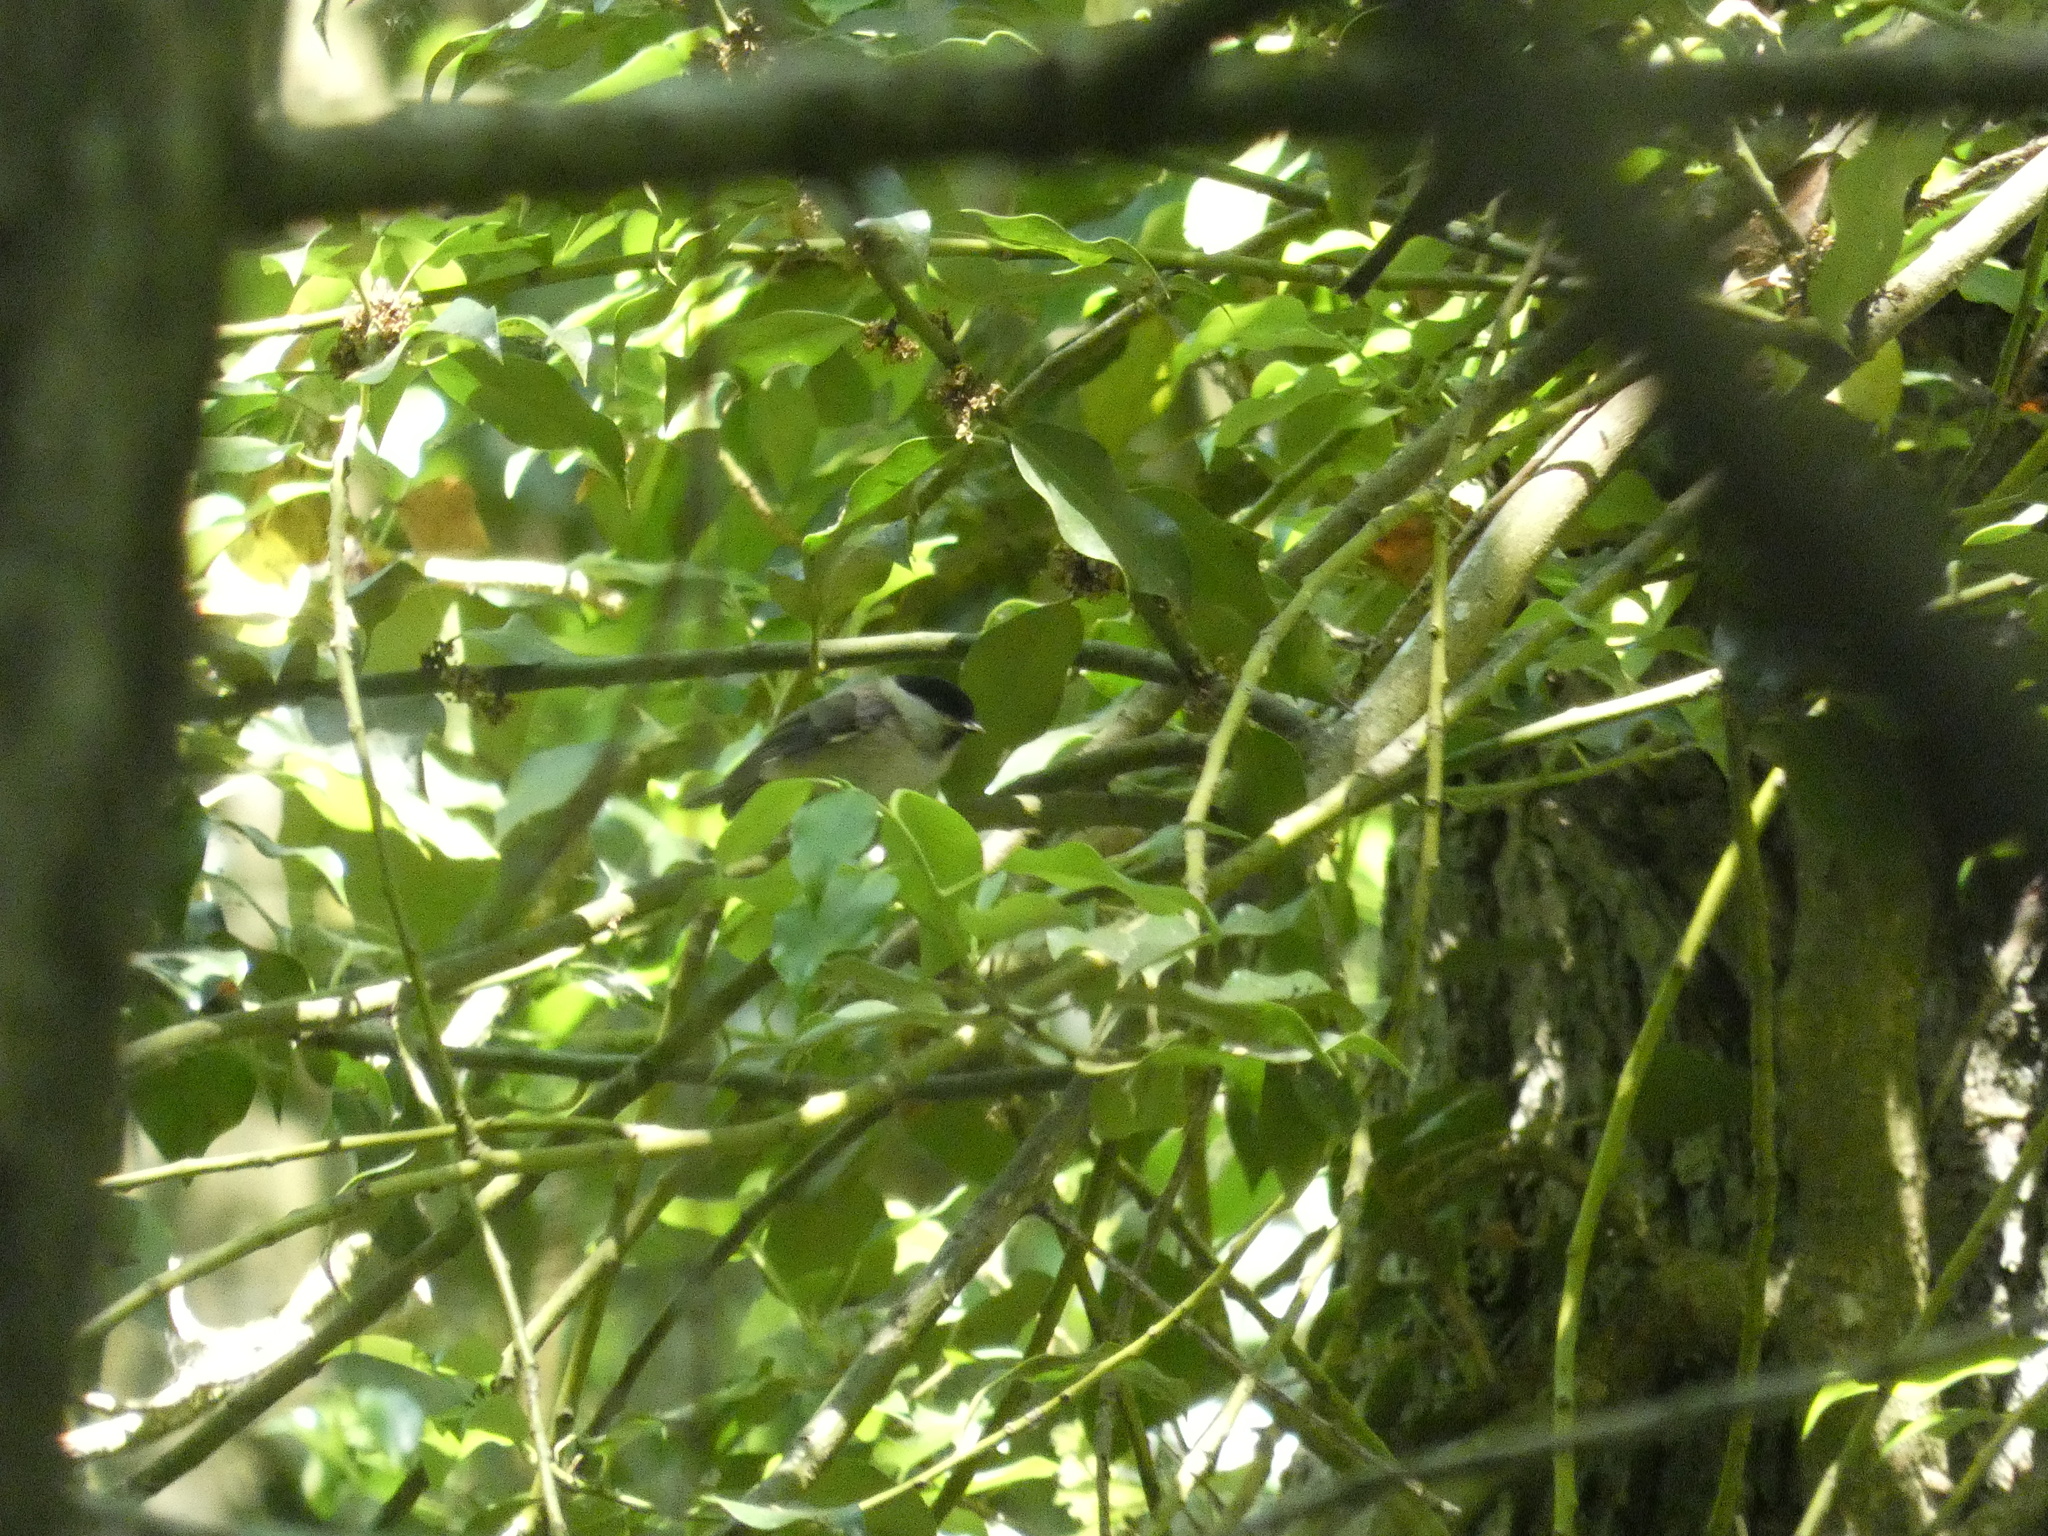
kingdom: Animalia
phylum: Chordata
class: Aves
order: Passeriformes
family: Paridae
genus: Poecile
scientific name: Poecile palustris
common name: Marsh tit
